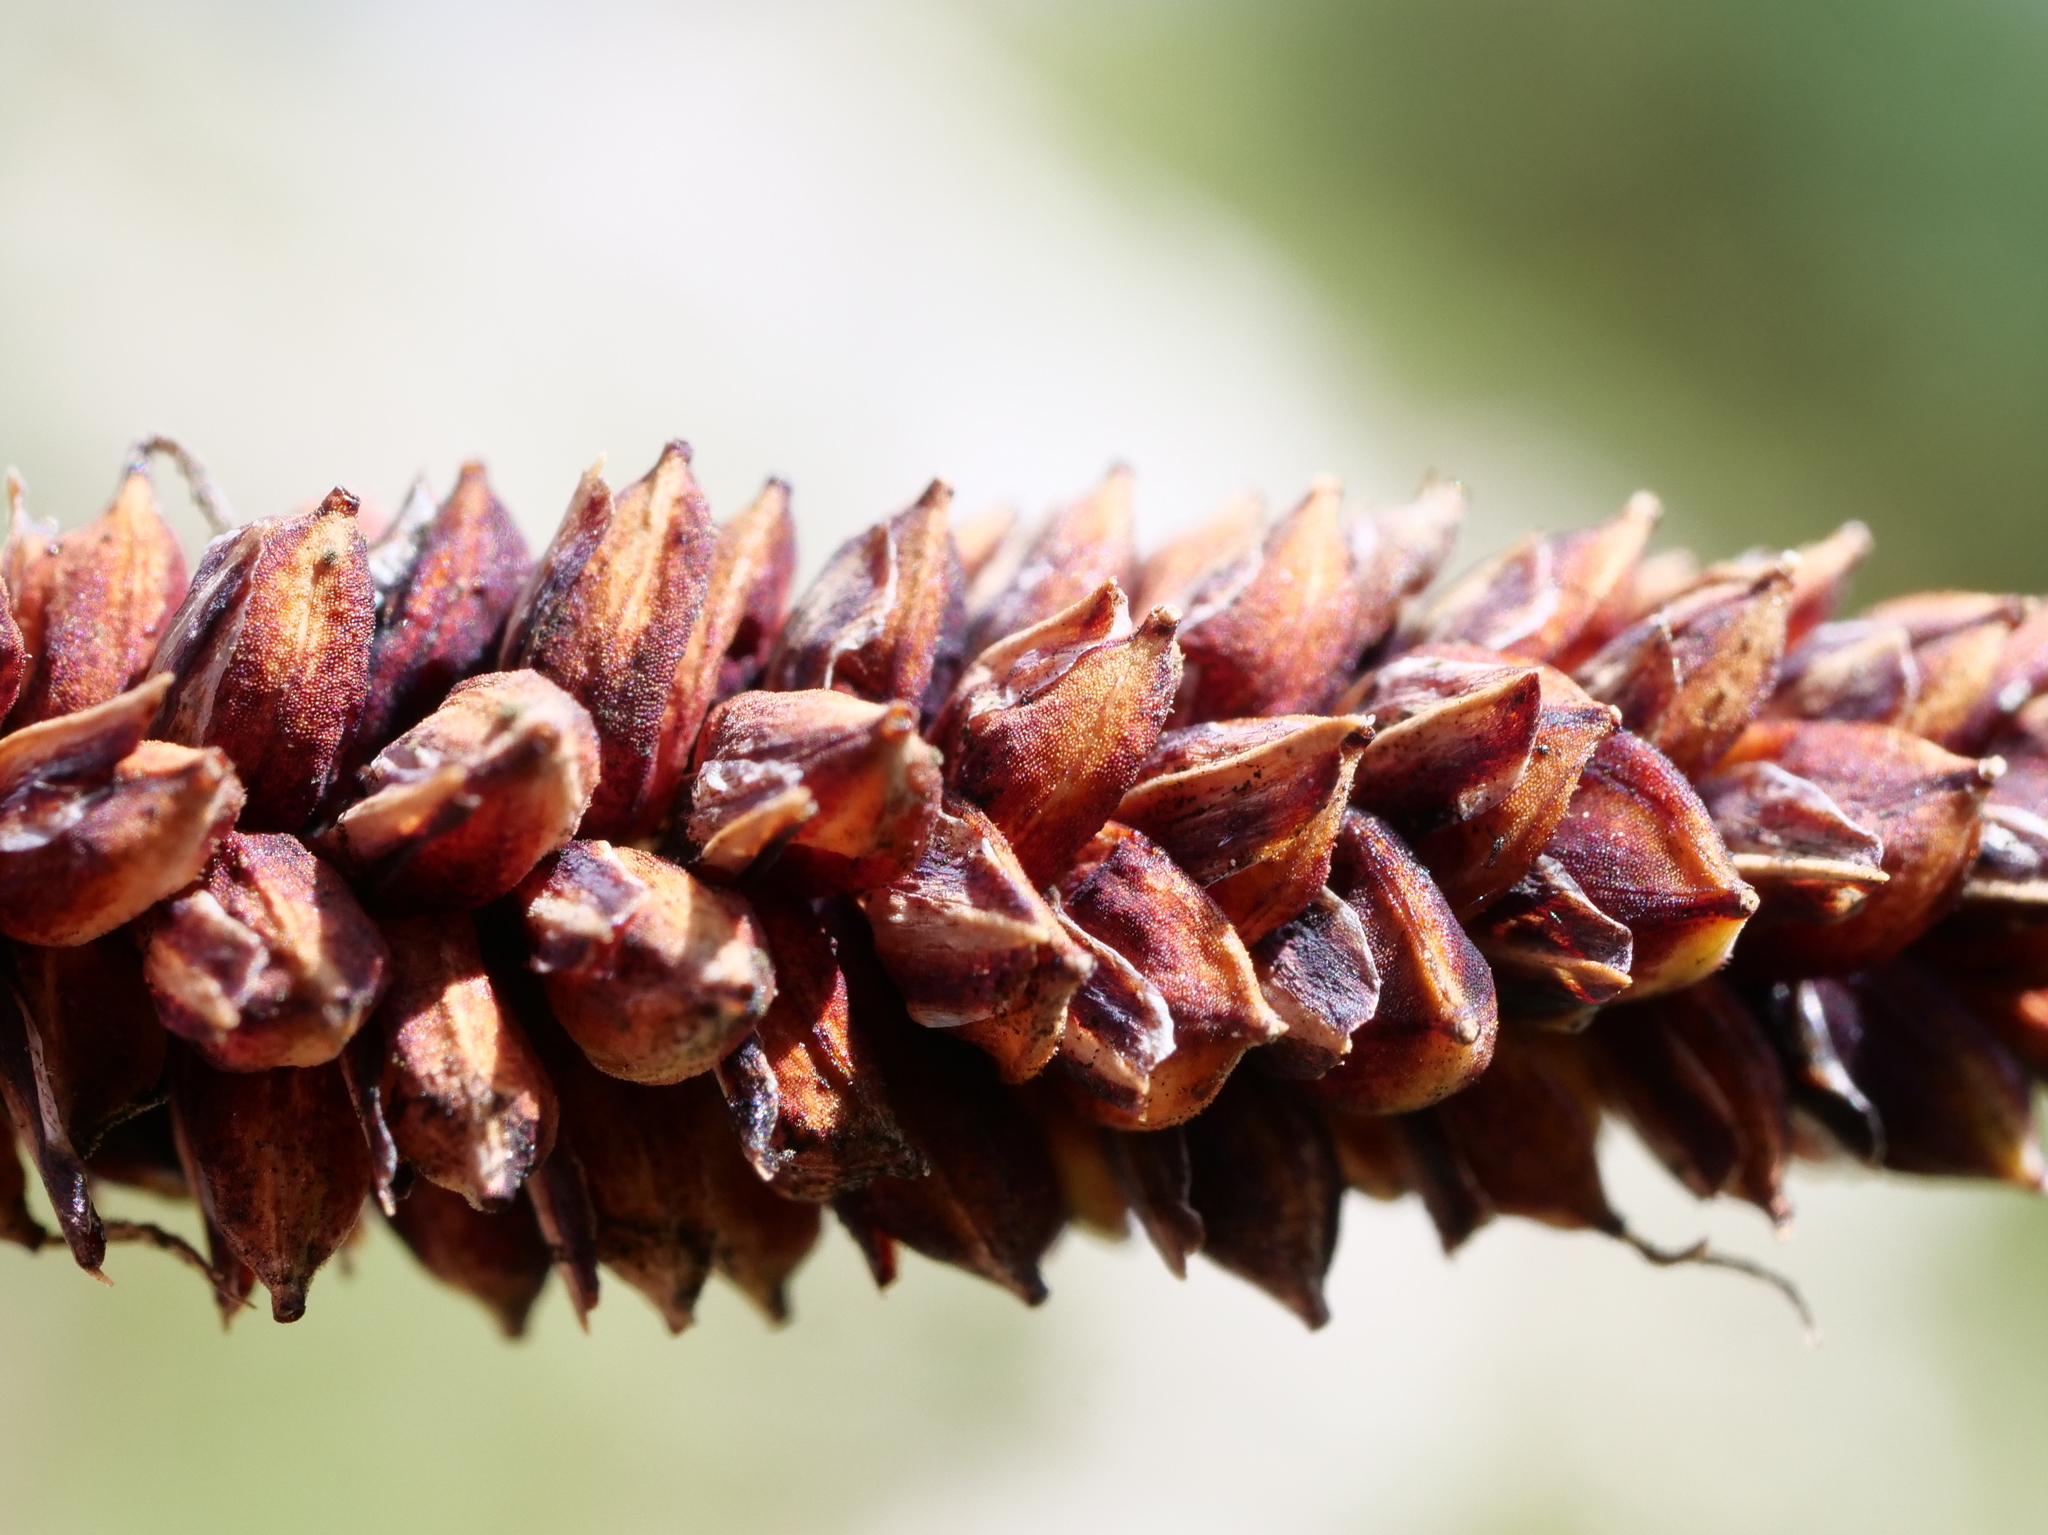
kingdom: Plantae
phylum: Tracheophyta
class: Liliopsida
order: Poales
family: Cyperaceae
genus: Carex
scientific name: Carex flacca
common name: Glaucous sedge
